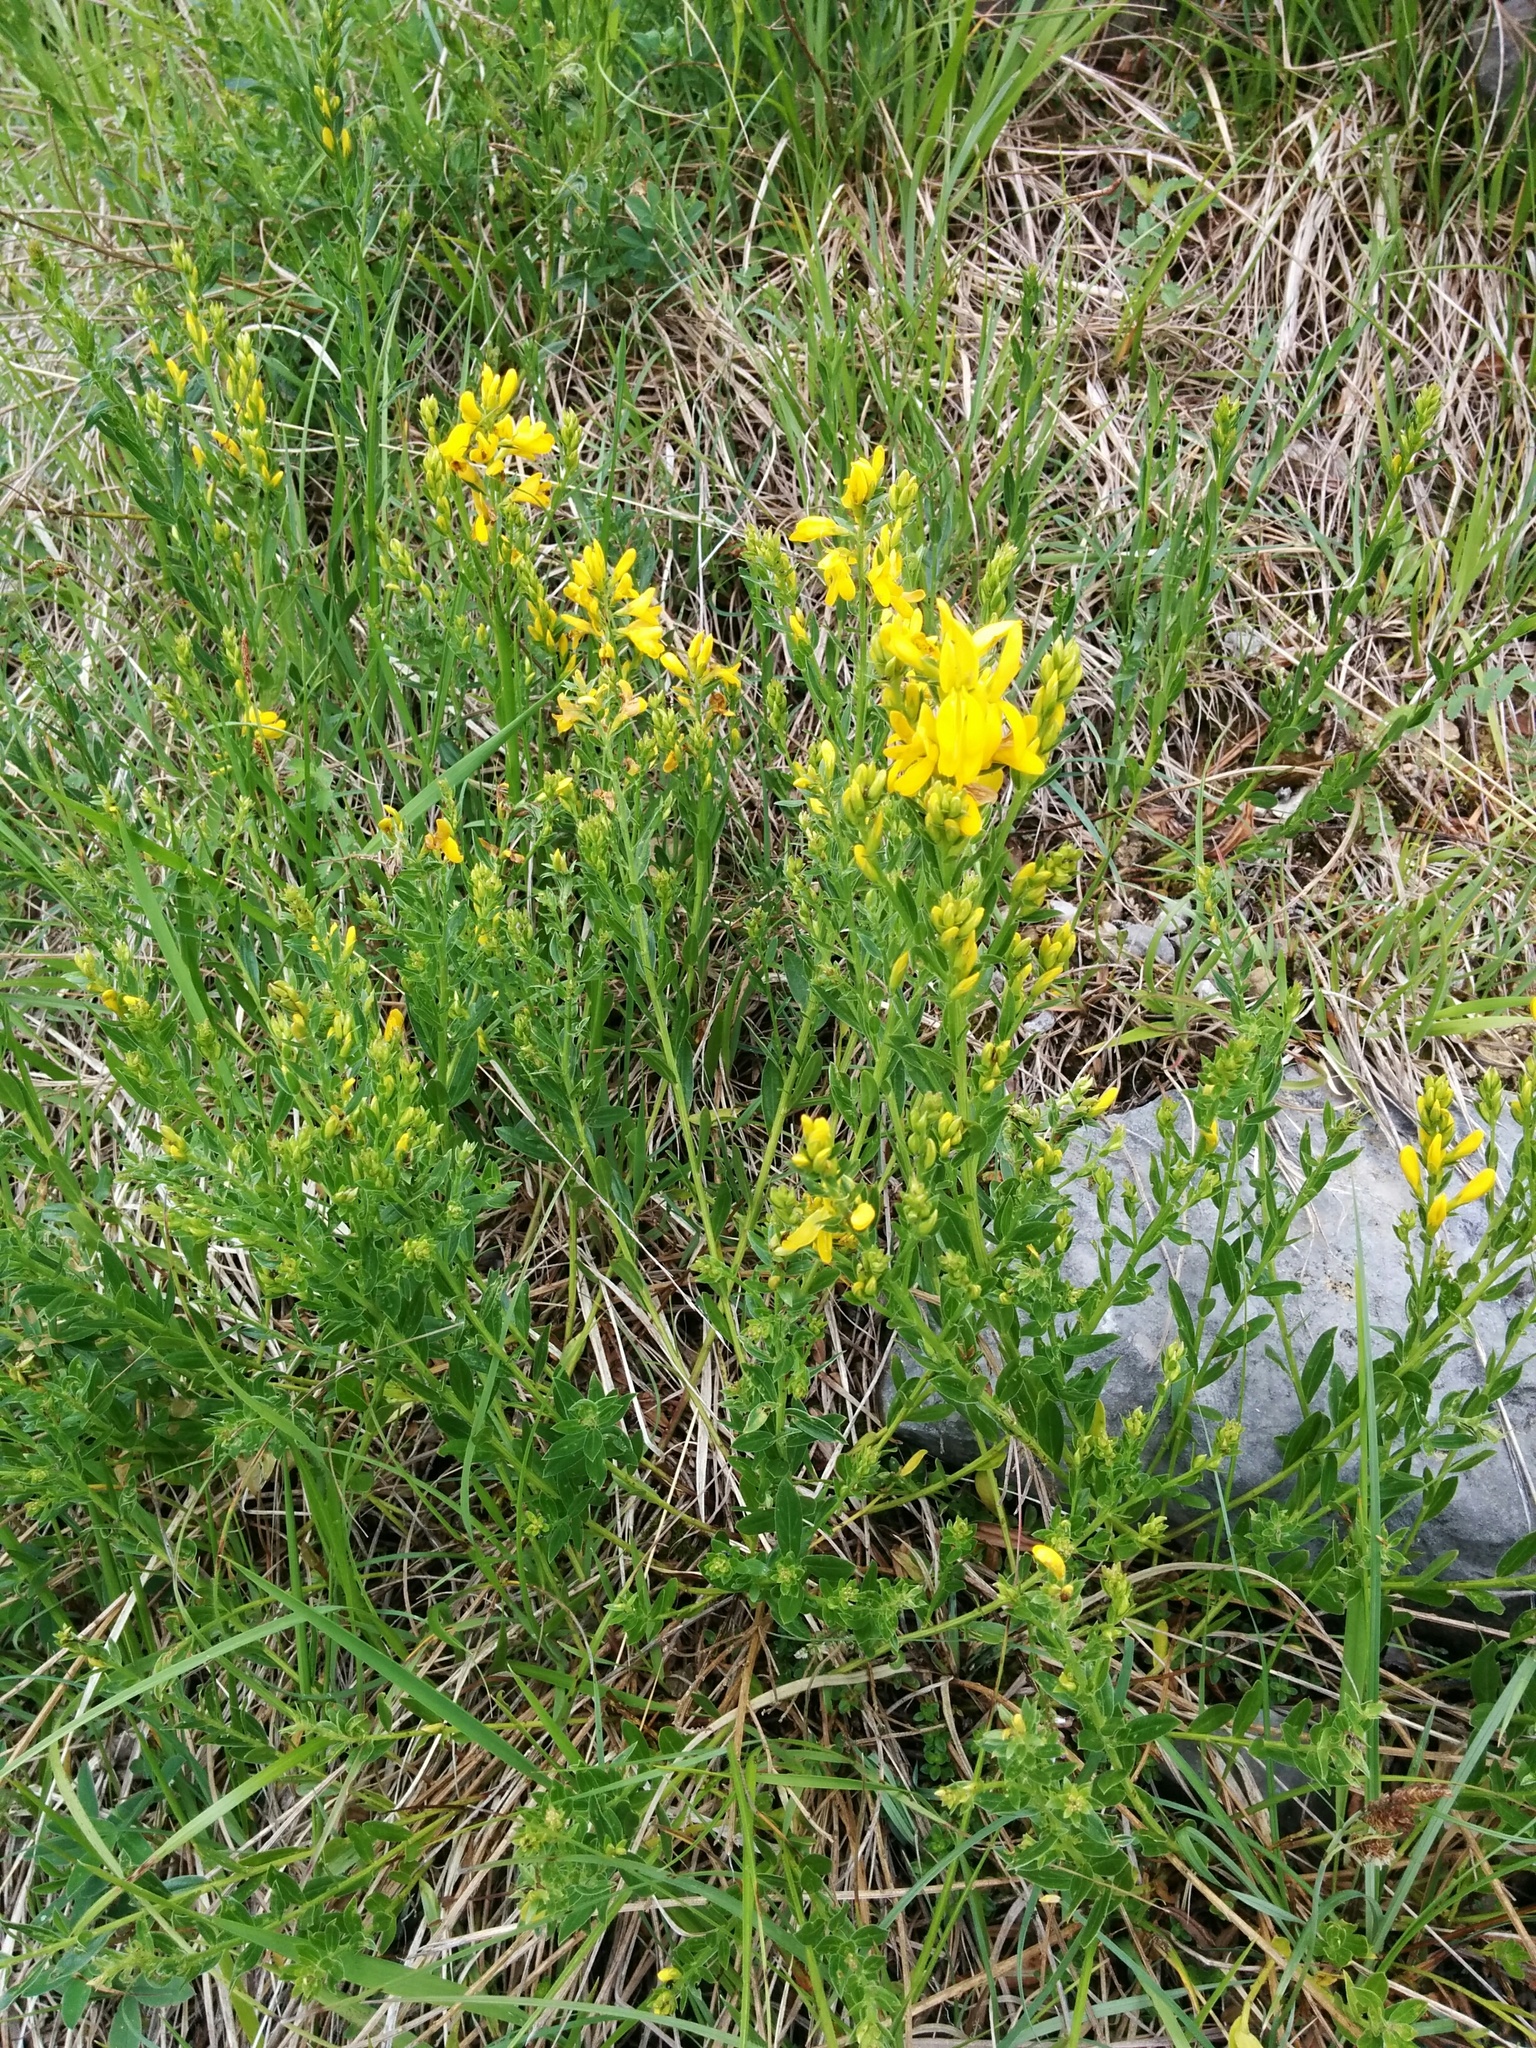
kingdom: Plantae
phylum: Tracheophyta
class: Magnoliopsida
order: Fabales
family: Fabaceae
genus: Genista
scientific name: Genista tinctoria
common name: Dyer's greenweed
